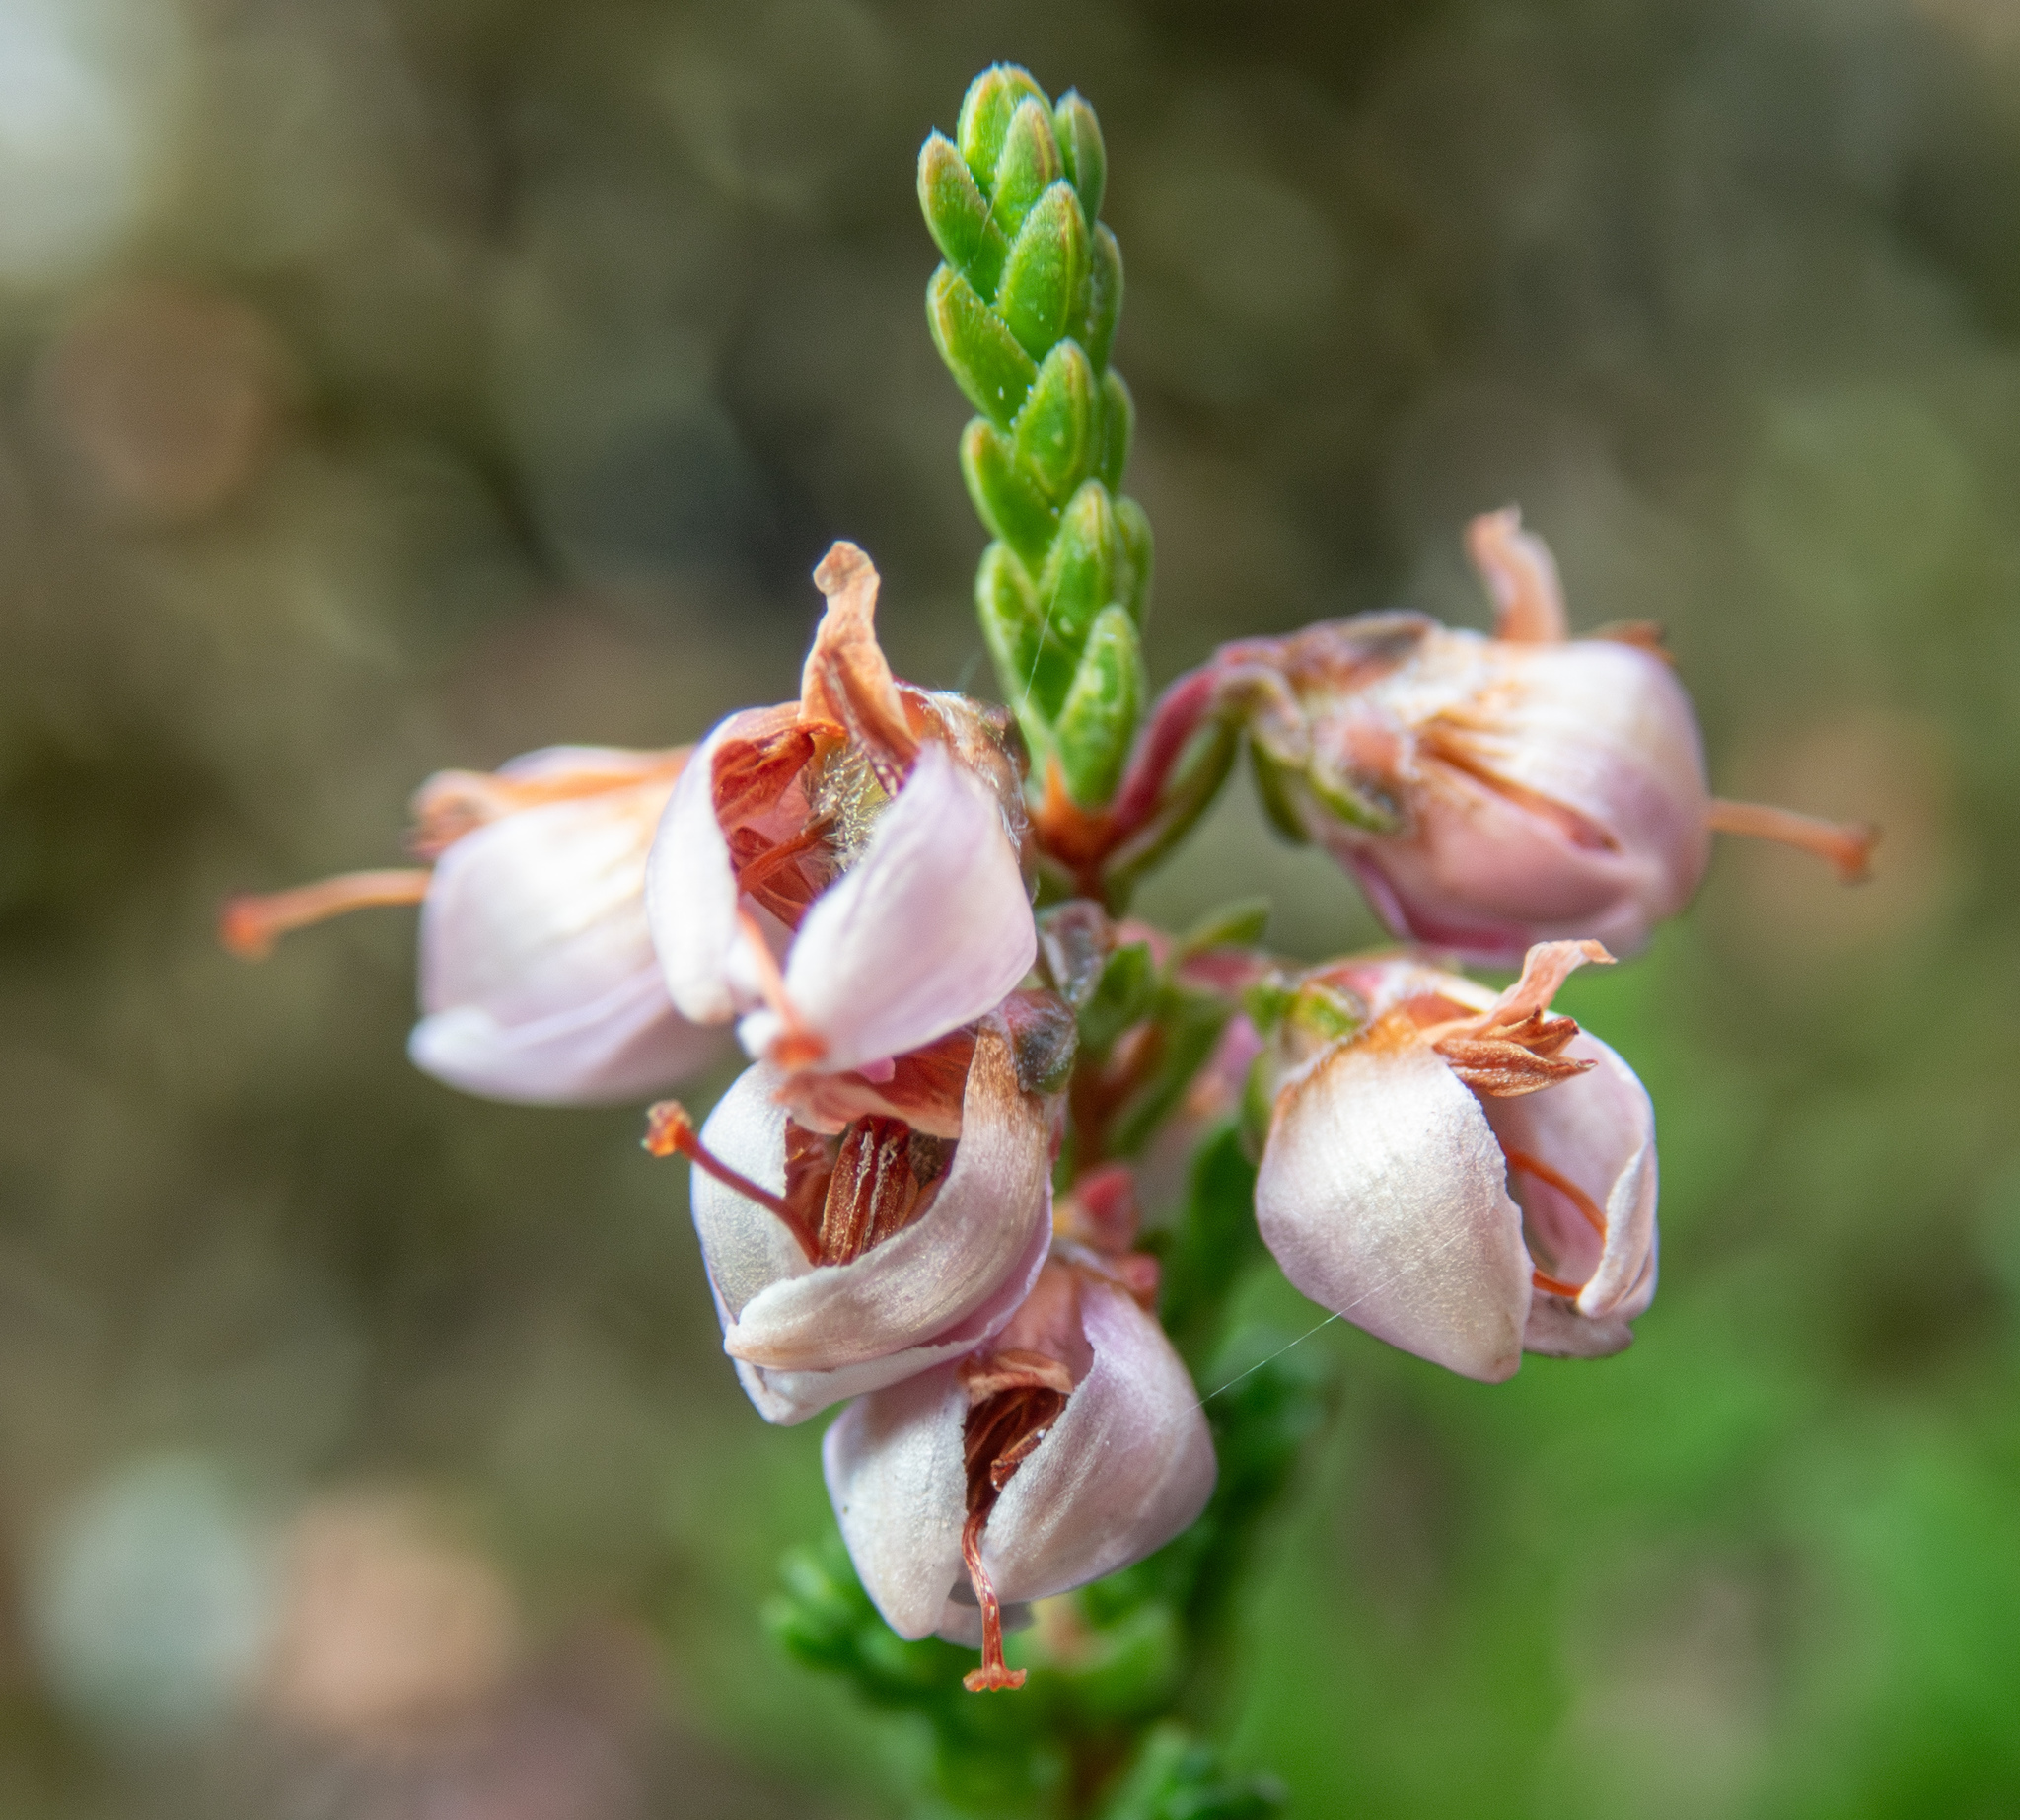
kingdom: Plantae
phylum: Tracheophyta
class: Magnoliopsida
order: Ericales
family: Ericaceae
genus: Calluna
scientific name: Calluna vulgaris
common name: Heather
